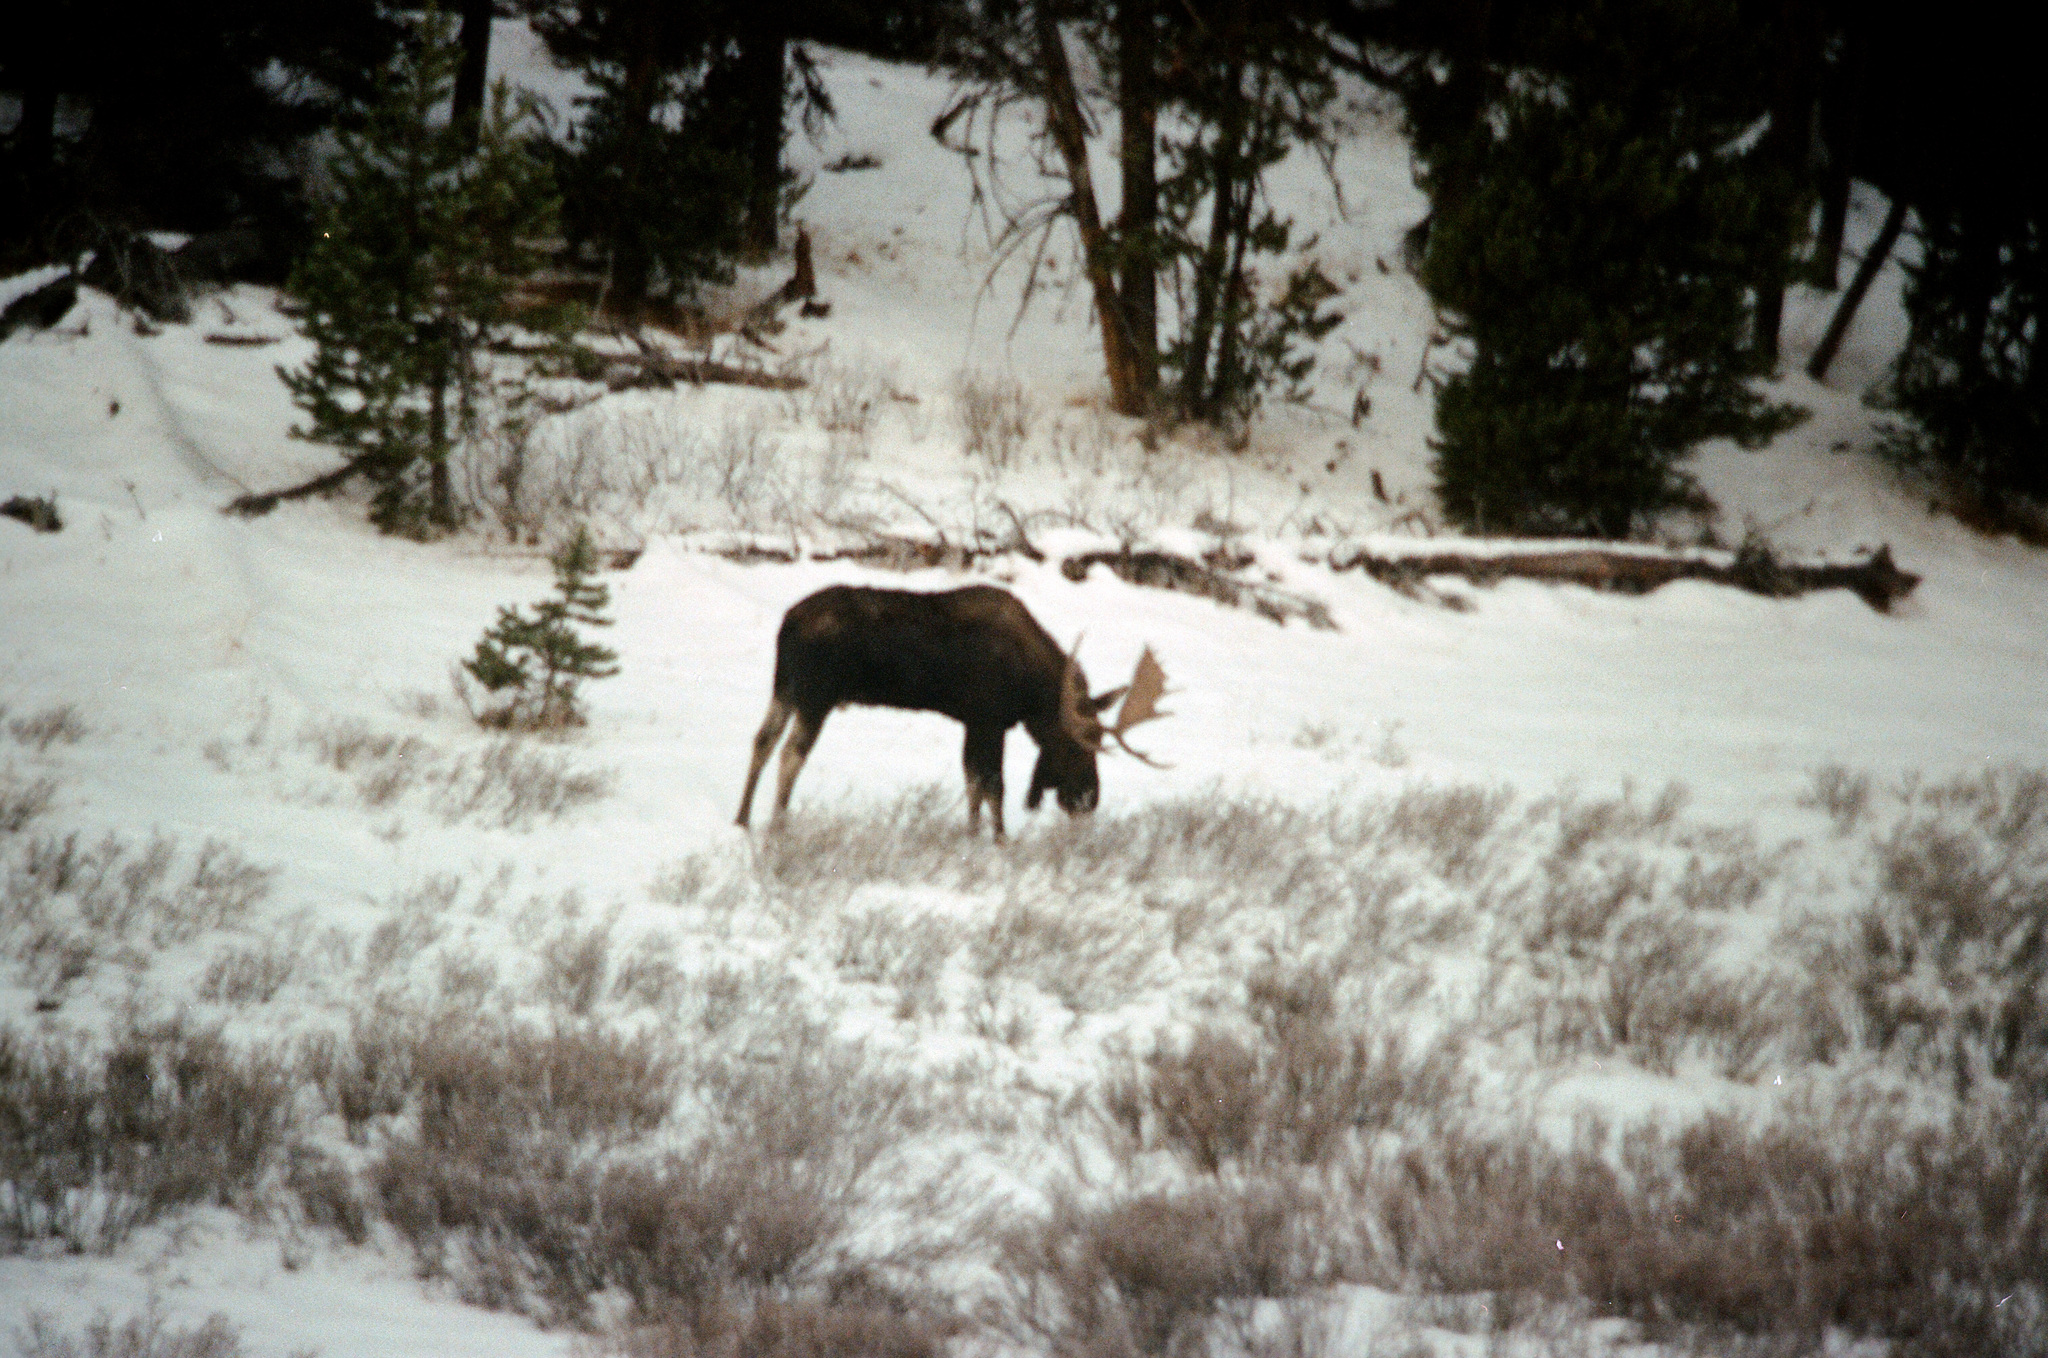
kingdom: Animalia
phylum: Chordata
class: Mammalia
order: Artiodactyla
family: Cervidae
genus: Alces
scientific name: Alces alces
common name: Moose
